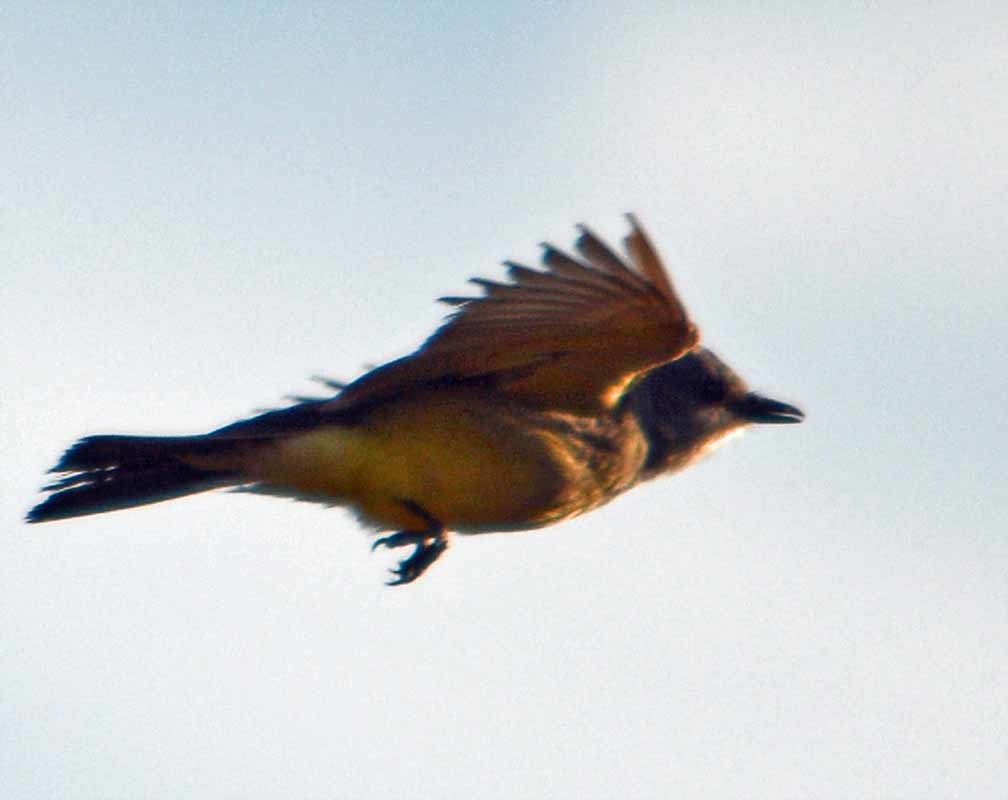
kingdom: Animalia
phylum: Chordata
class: Aves
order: Passeriformes
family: Tyrannidae
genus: Tyrannus
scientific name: Tyrannus vociferans
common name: Cassin's kingbird
